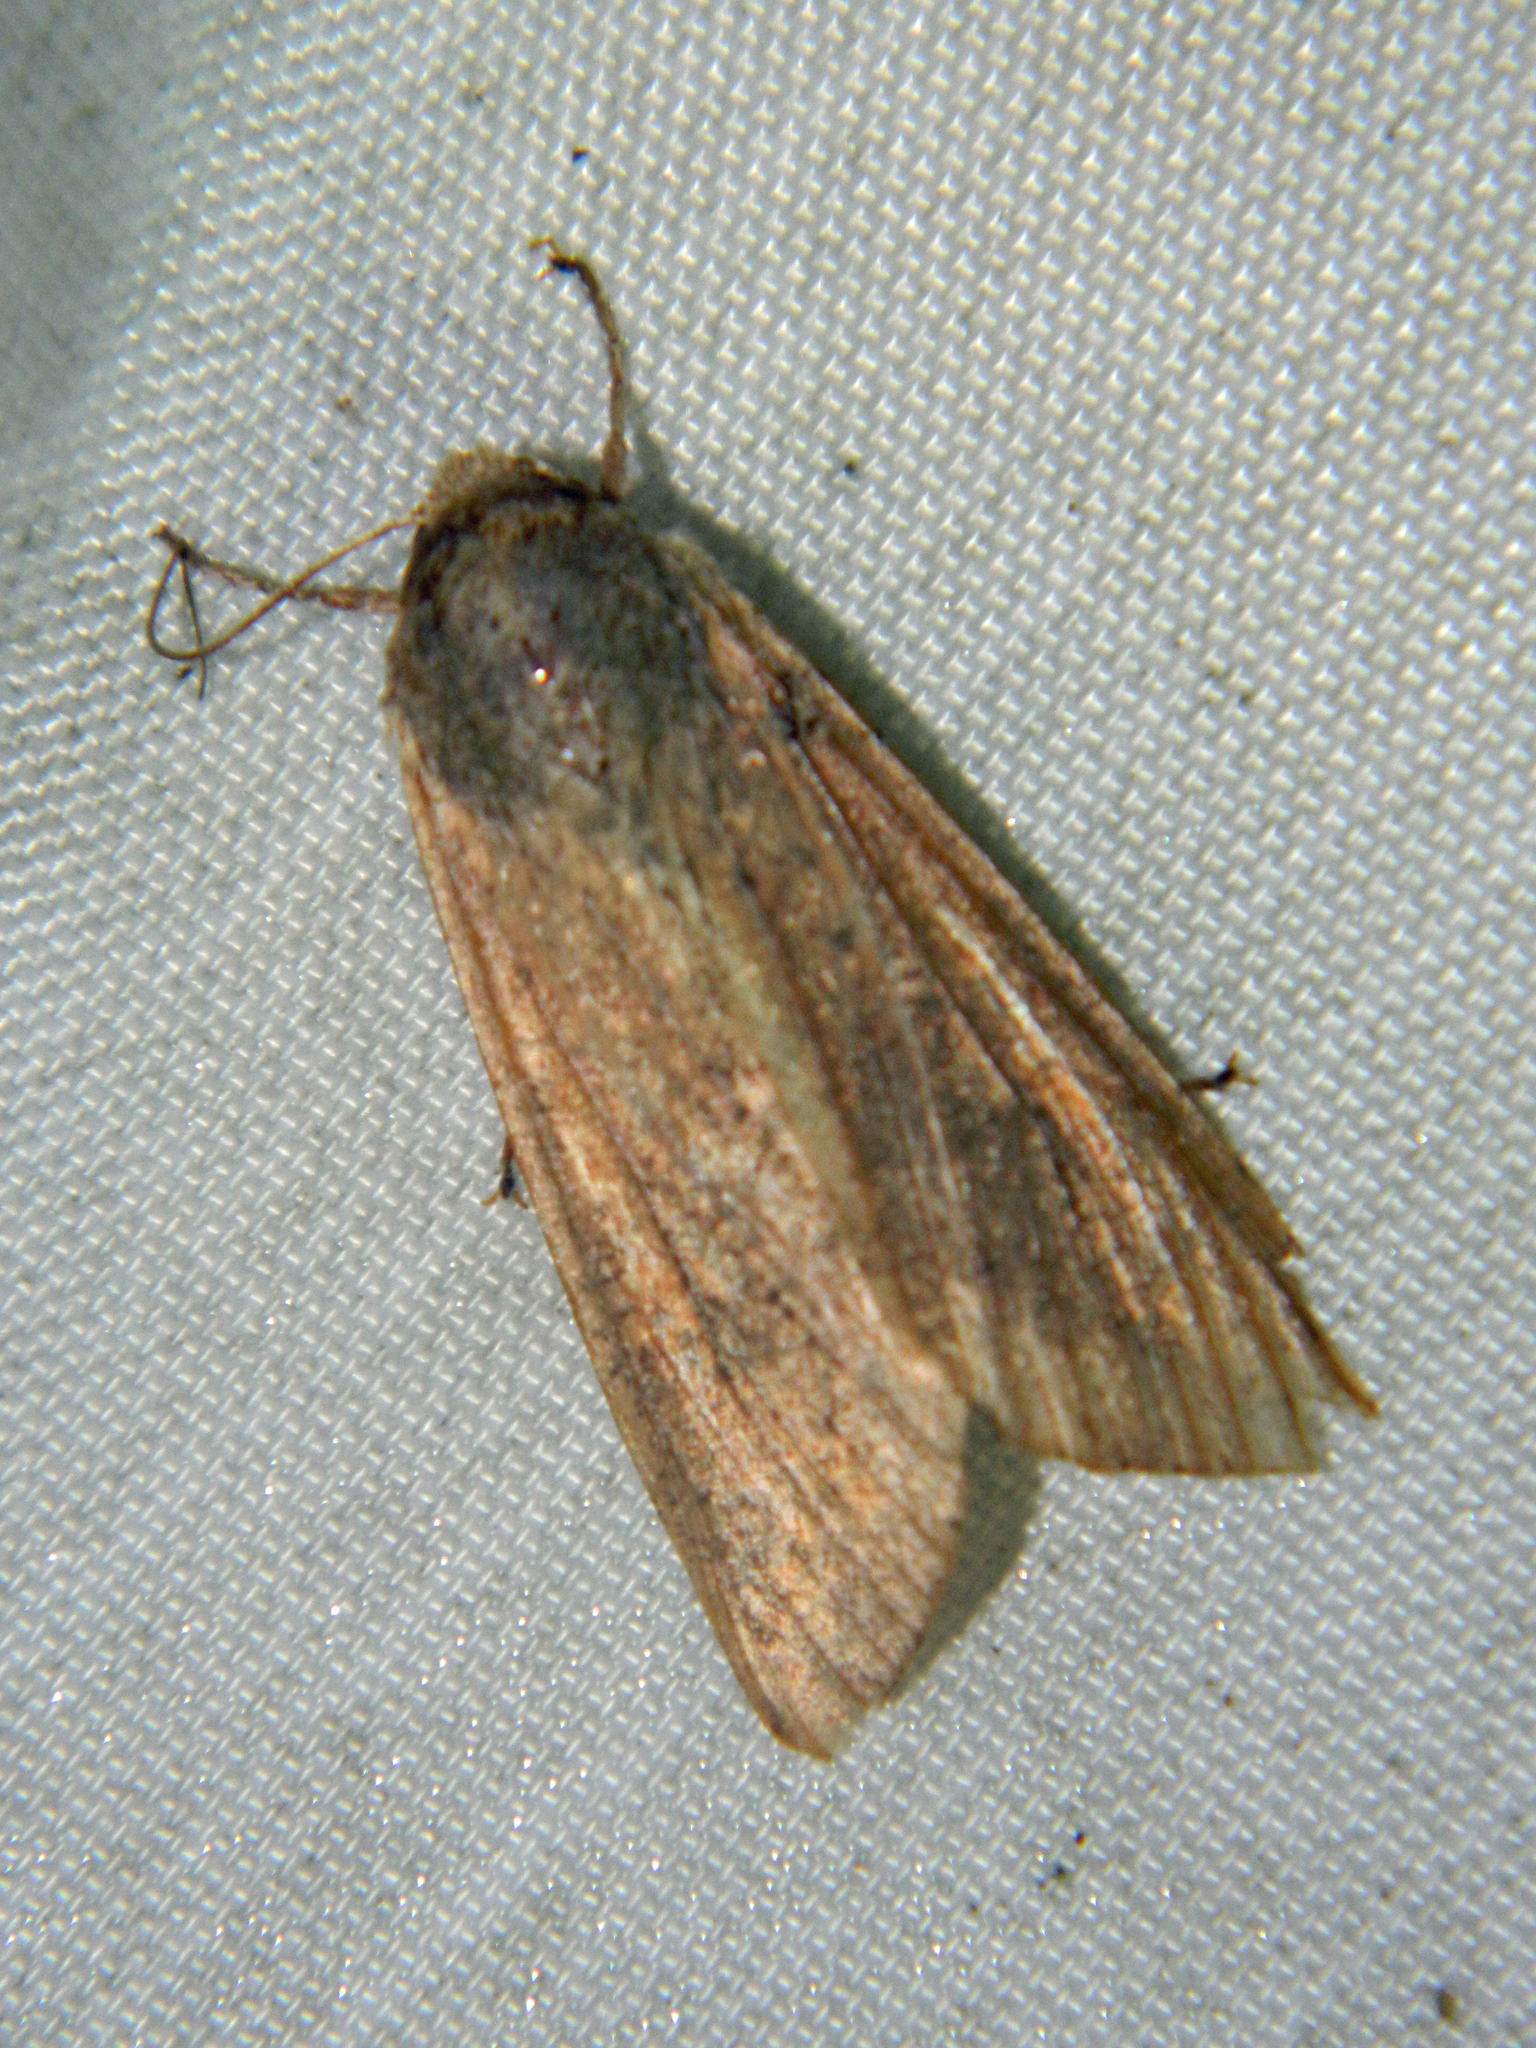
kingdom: Animalia
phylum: Arthropoda
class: Insecta
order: Lepidoptera
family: Noctuidae
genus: Mythimna
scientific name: Mythimna unipuncta
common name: White-speck
